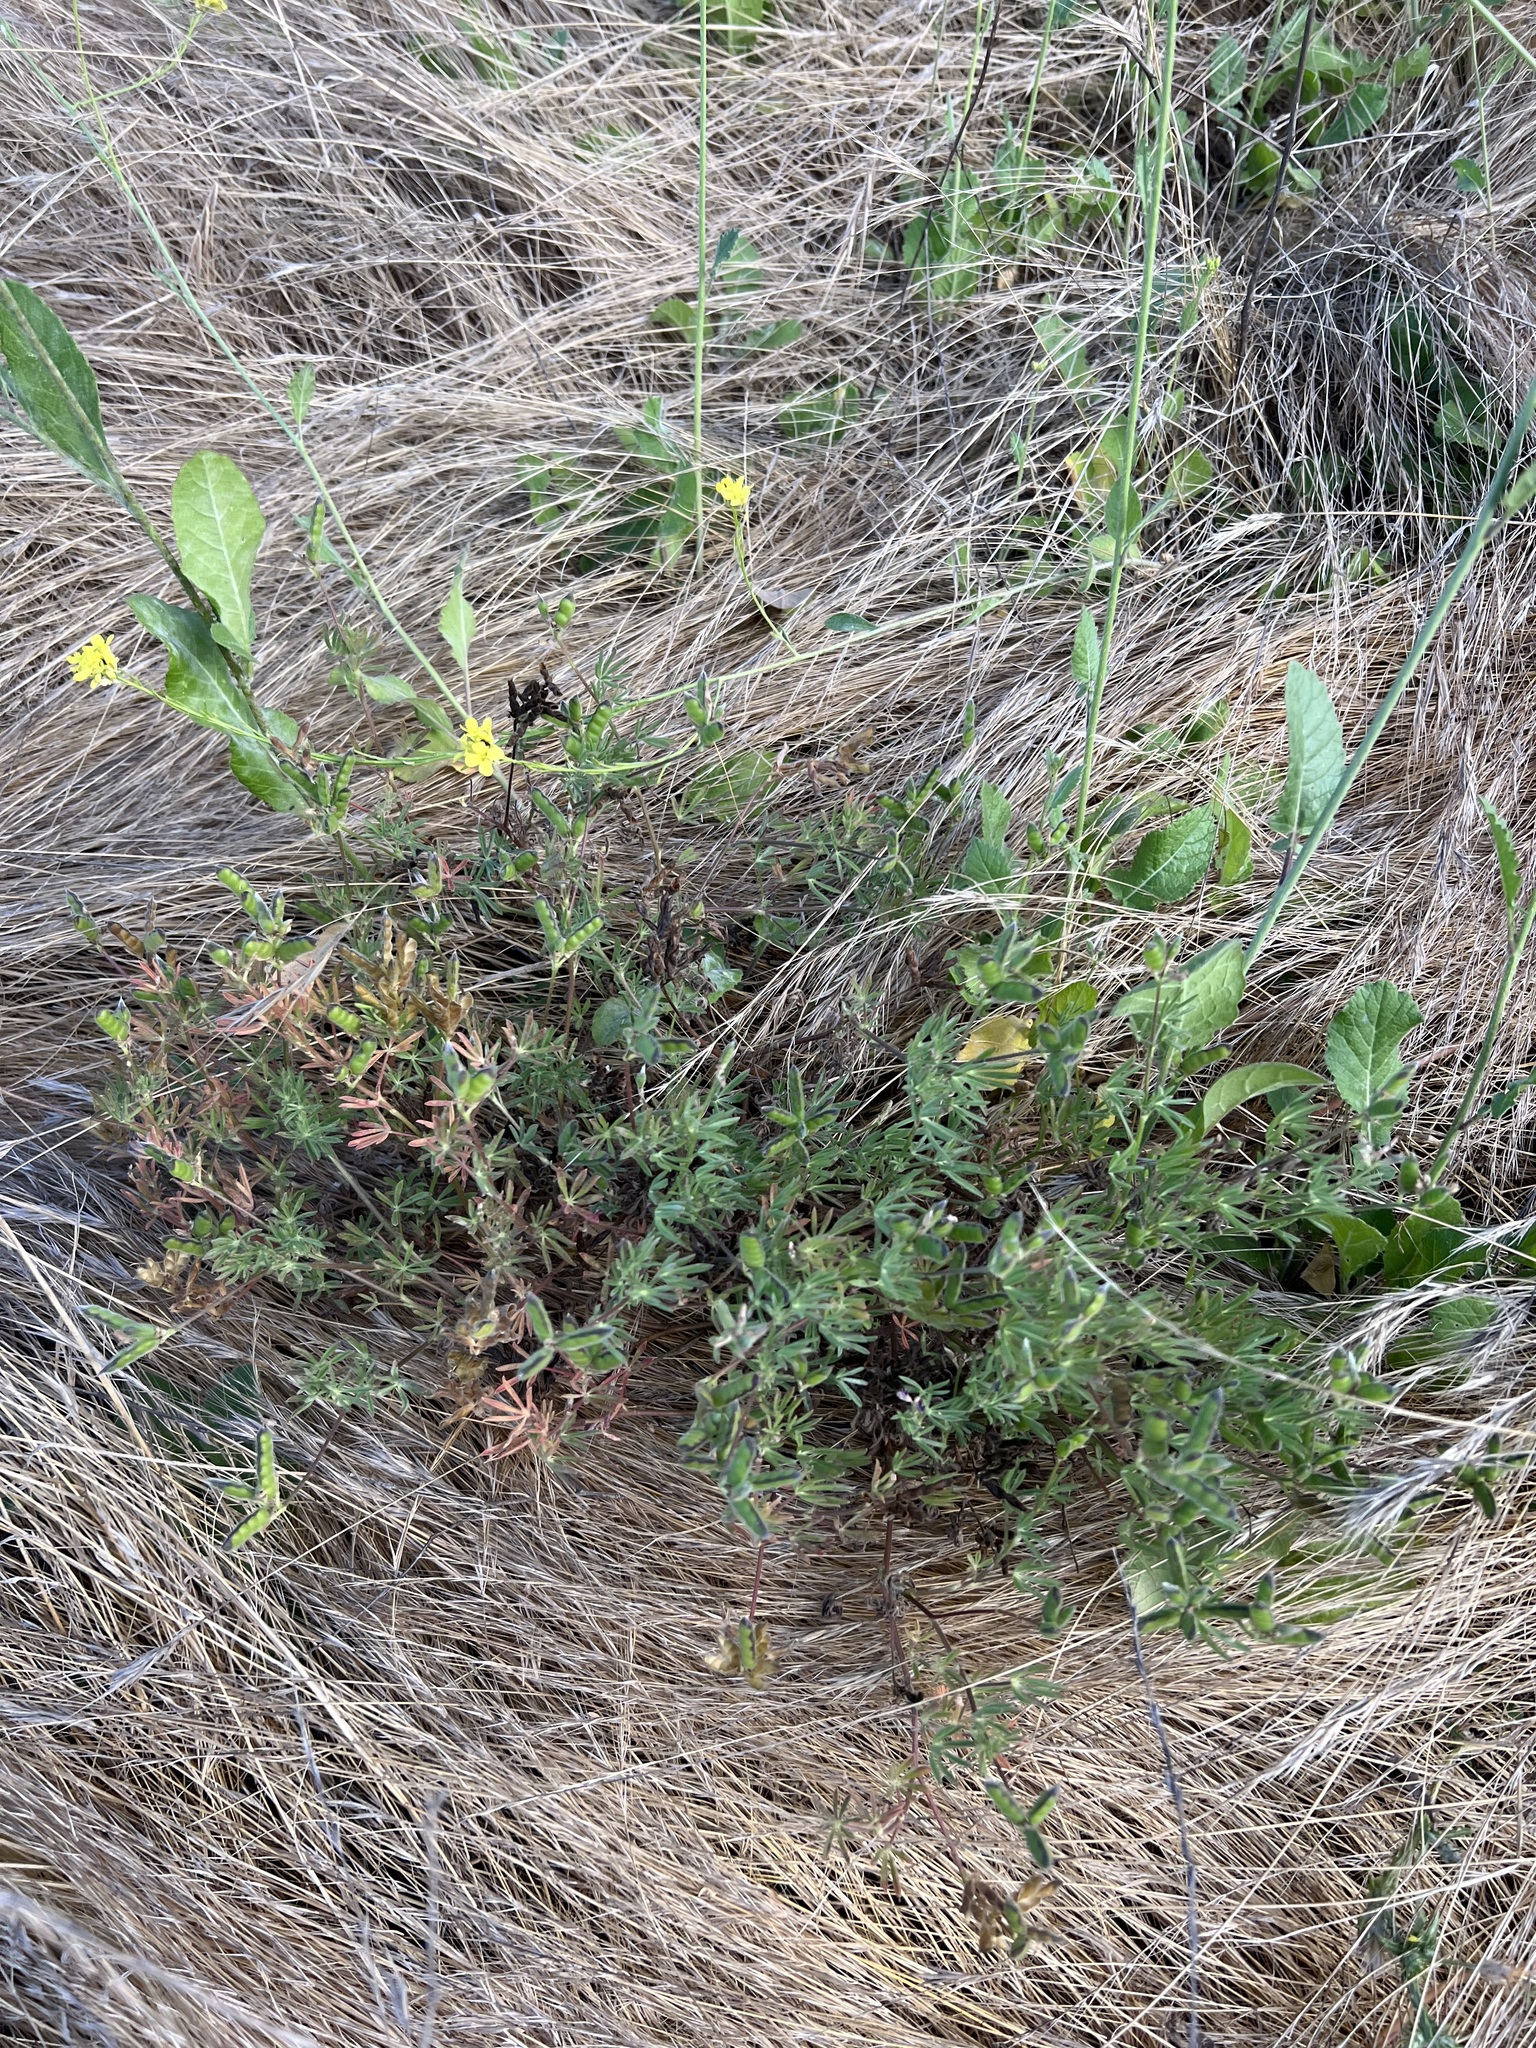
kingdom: Plantae
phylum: Tracheophyta
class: Magnoliopsida
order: Fabales
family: Fabaceae
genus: Lupinus
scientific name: Lupinus bicolor
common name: Miniature lupine
